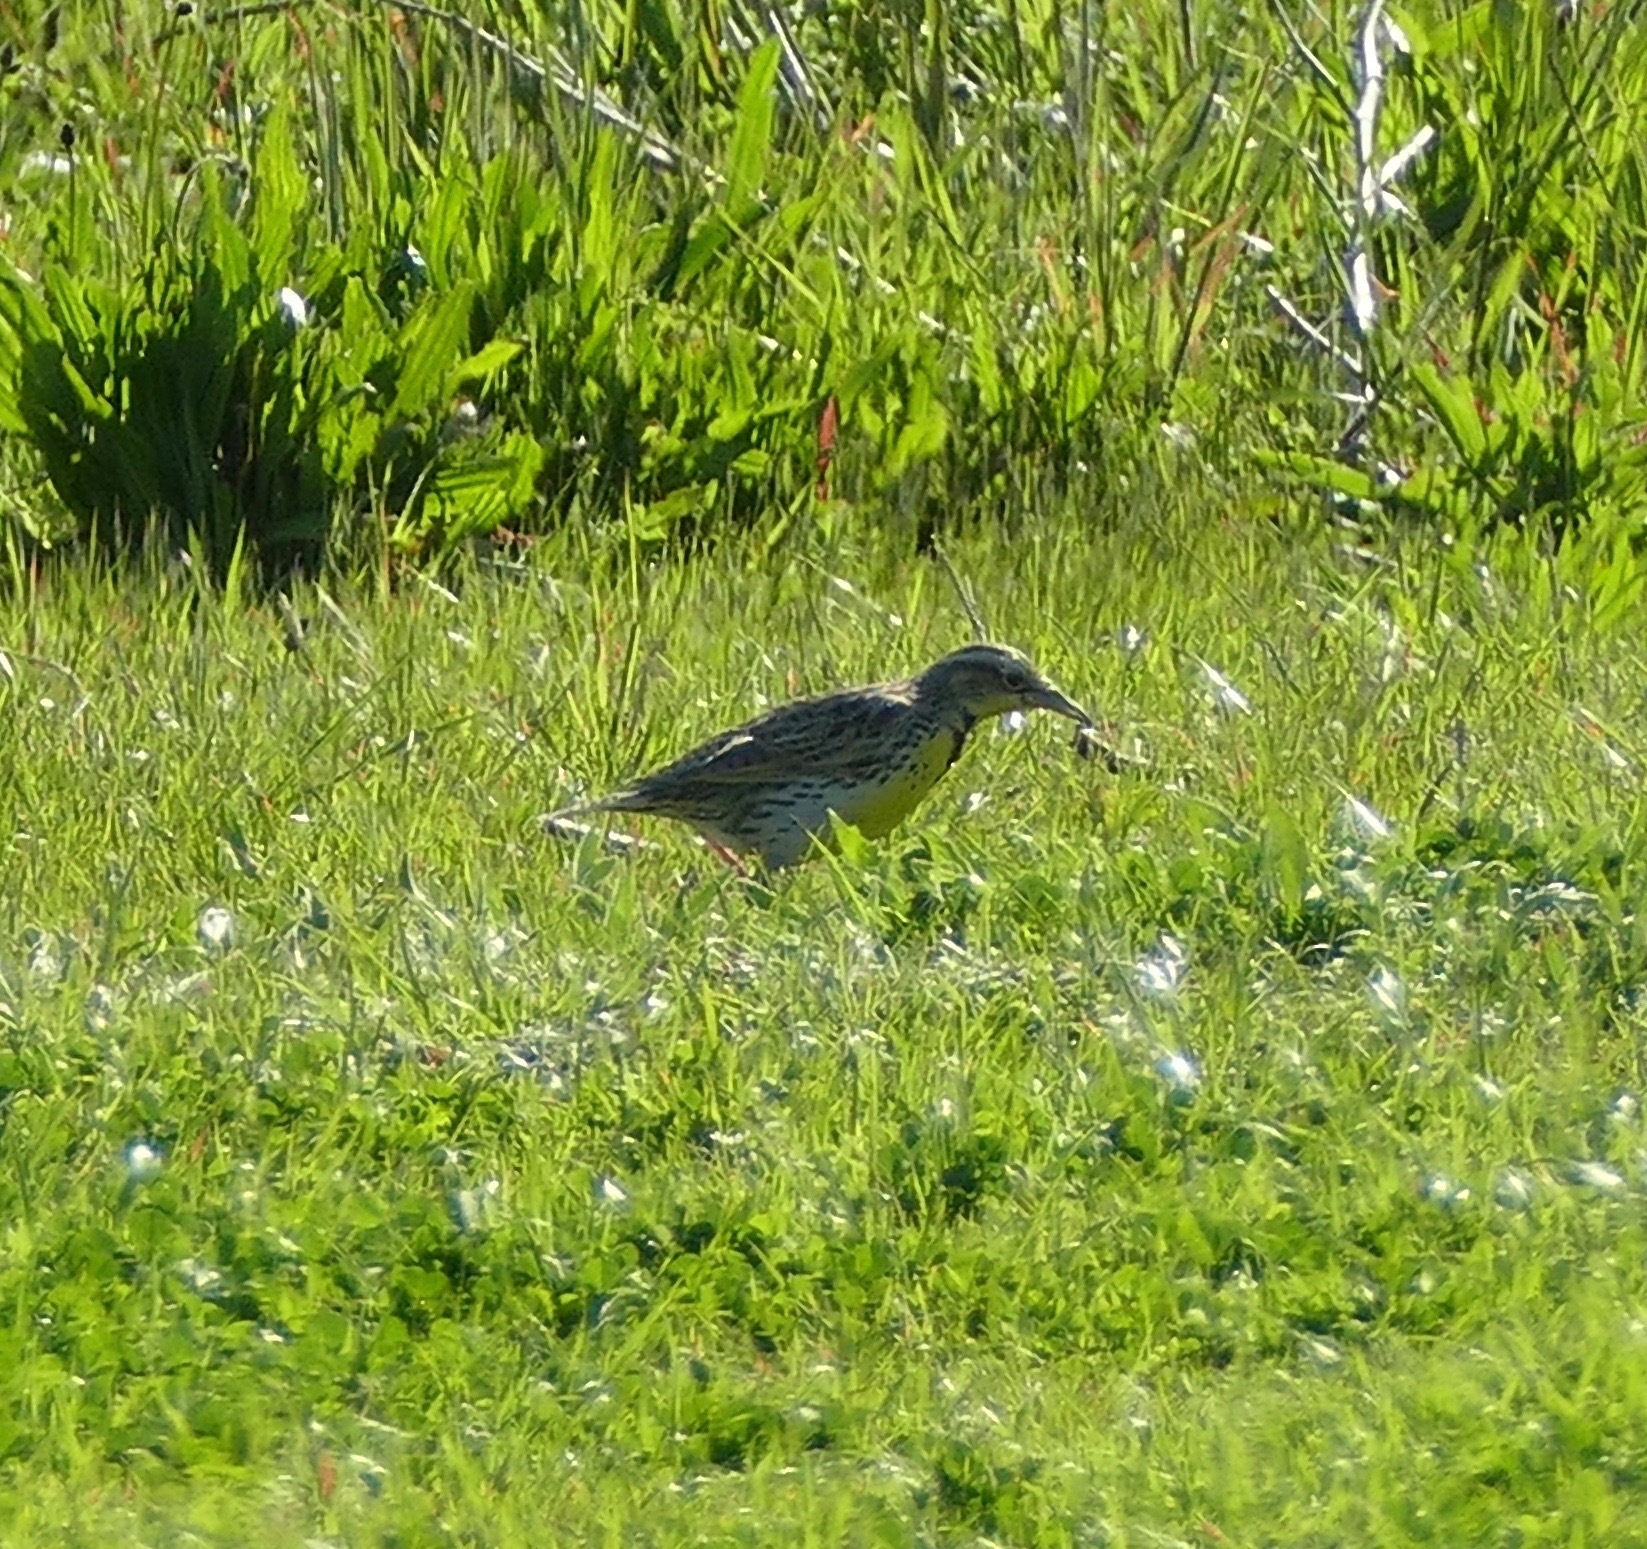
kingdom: Animalia
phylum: Chordata
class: Aves
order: Passeriformes
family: Icteridae
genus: Sturnella
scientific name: Sturnella neglecta
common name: Western meadowlark
